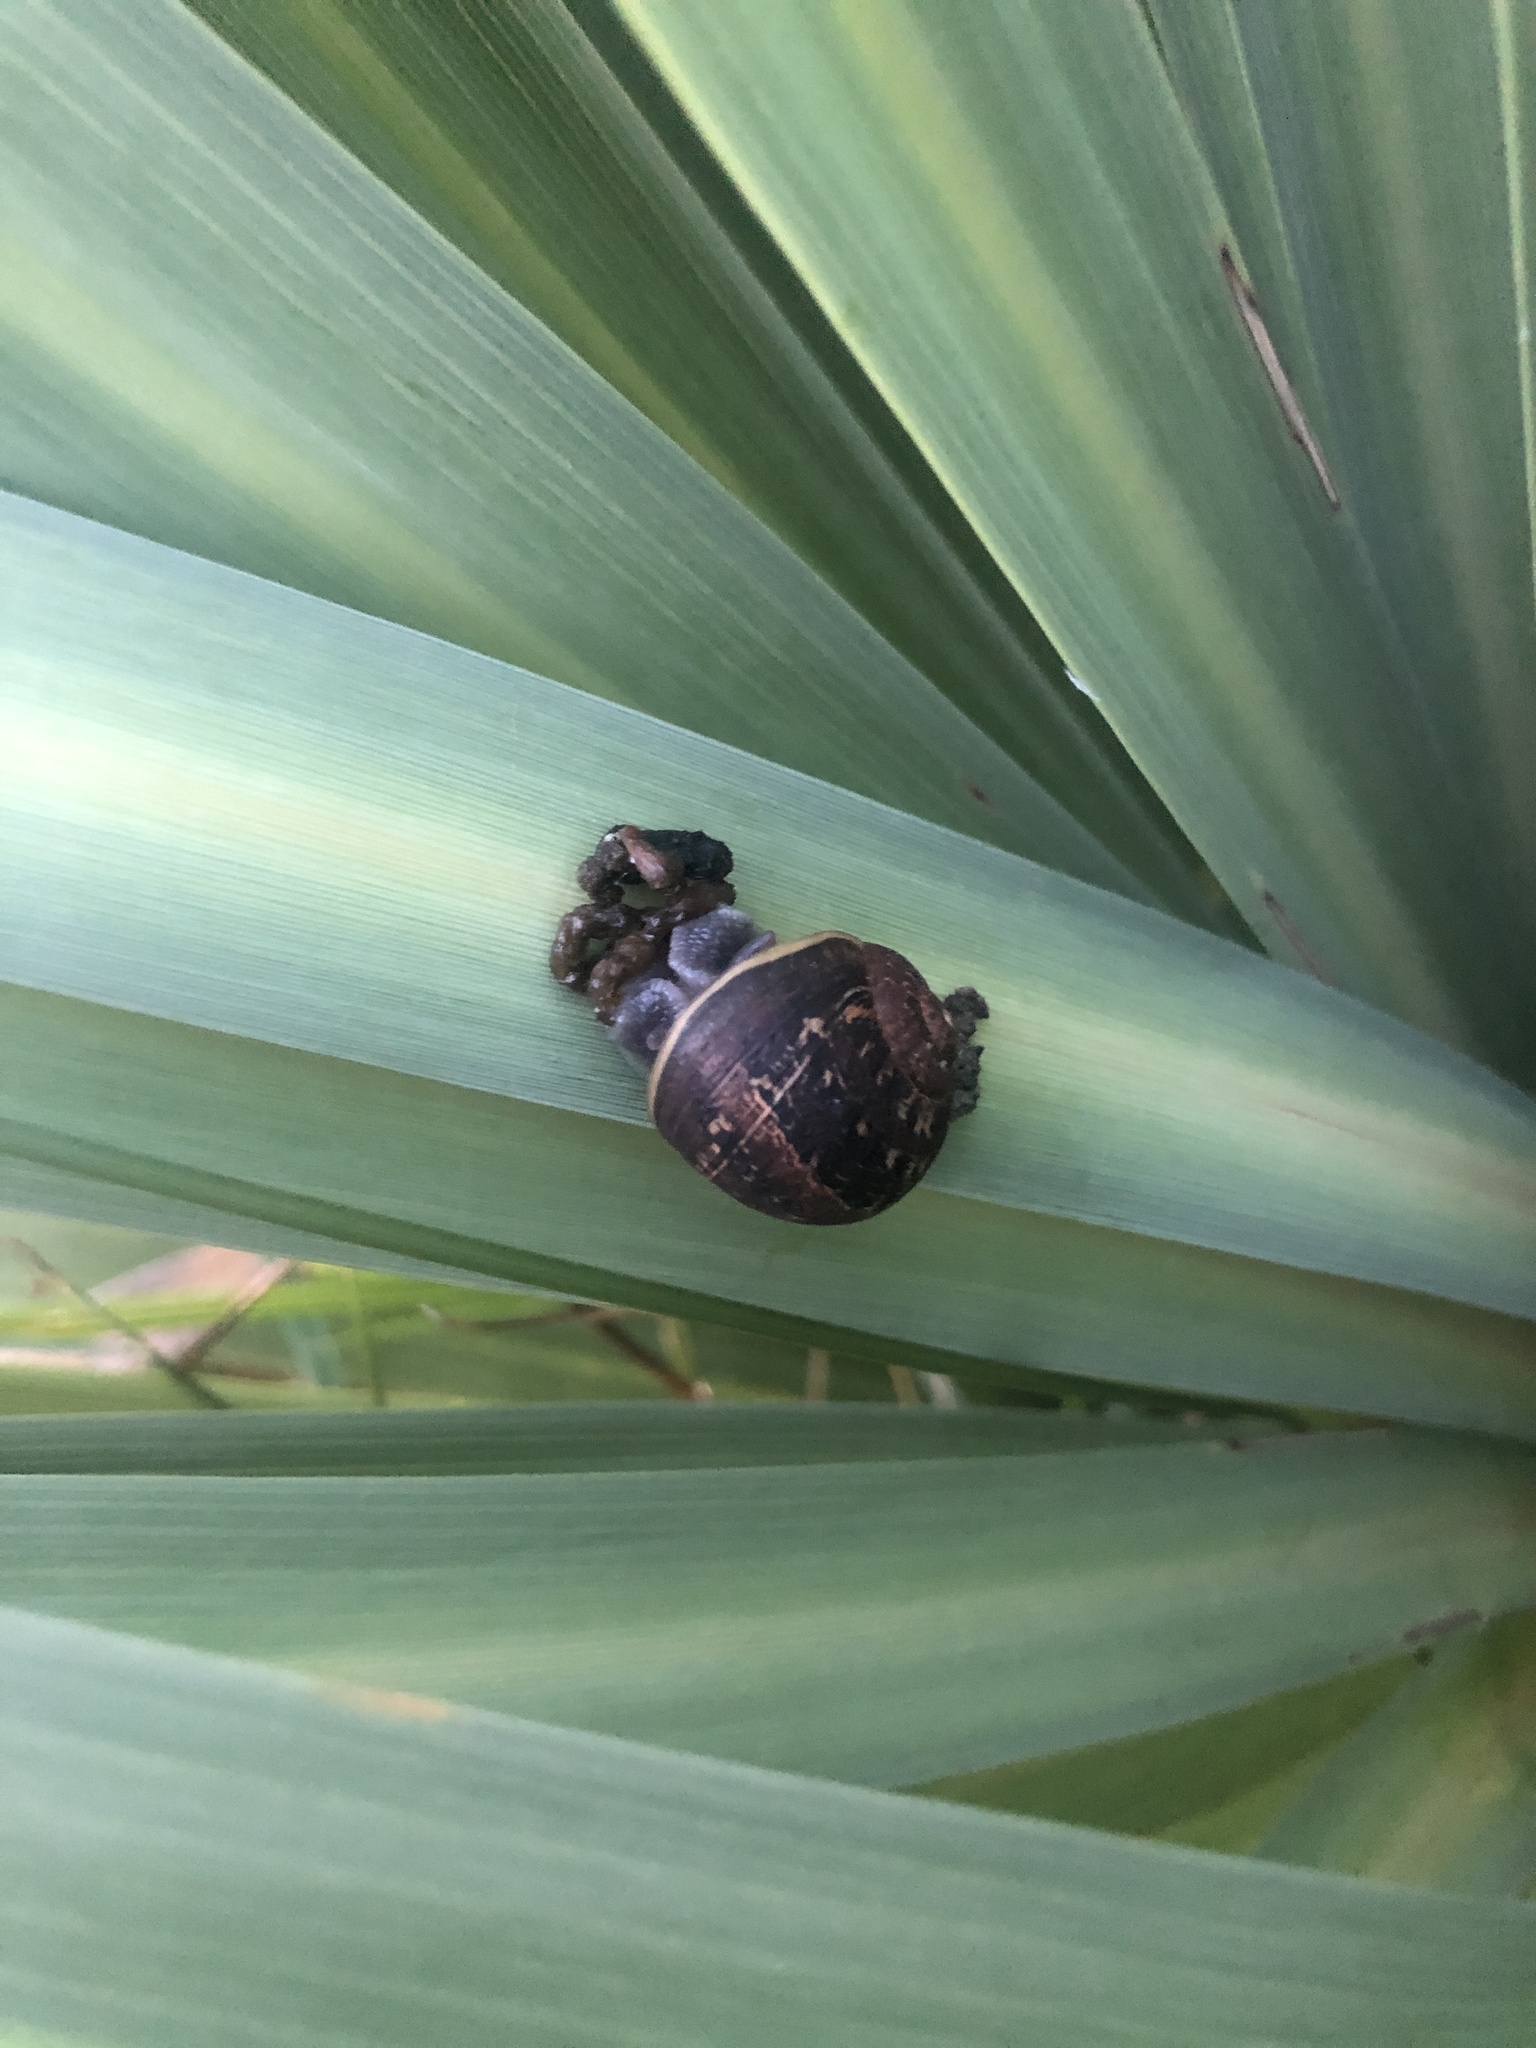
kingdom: Animalia
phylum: Mollusca
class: Gastropoda
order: Stylommatophora
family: Helicidae
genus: Cornu
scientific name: Cornu aspersum
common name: Brown garden snail
